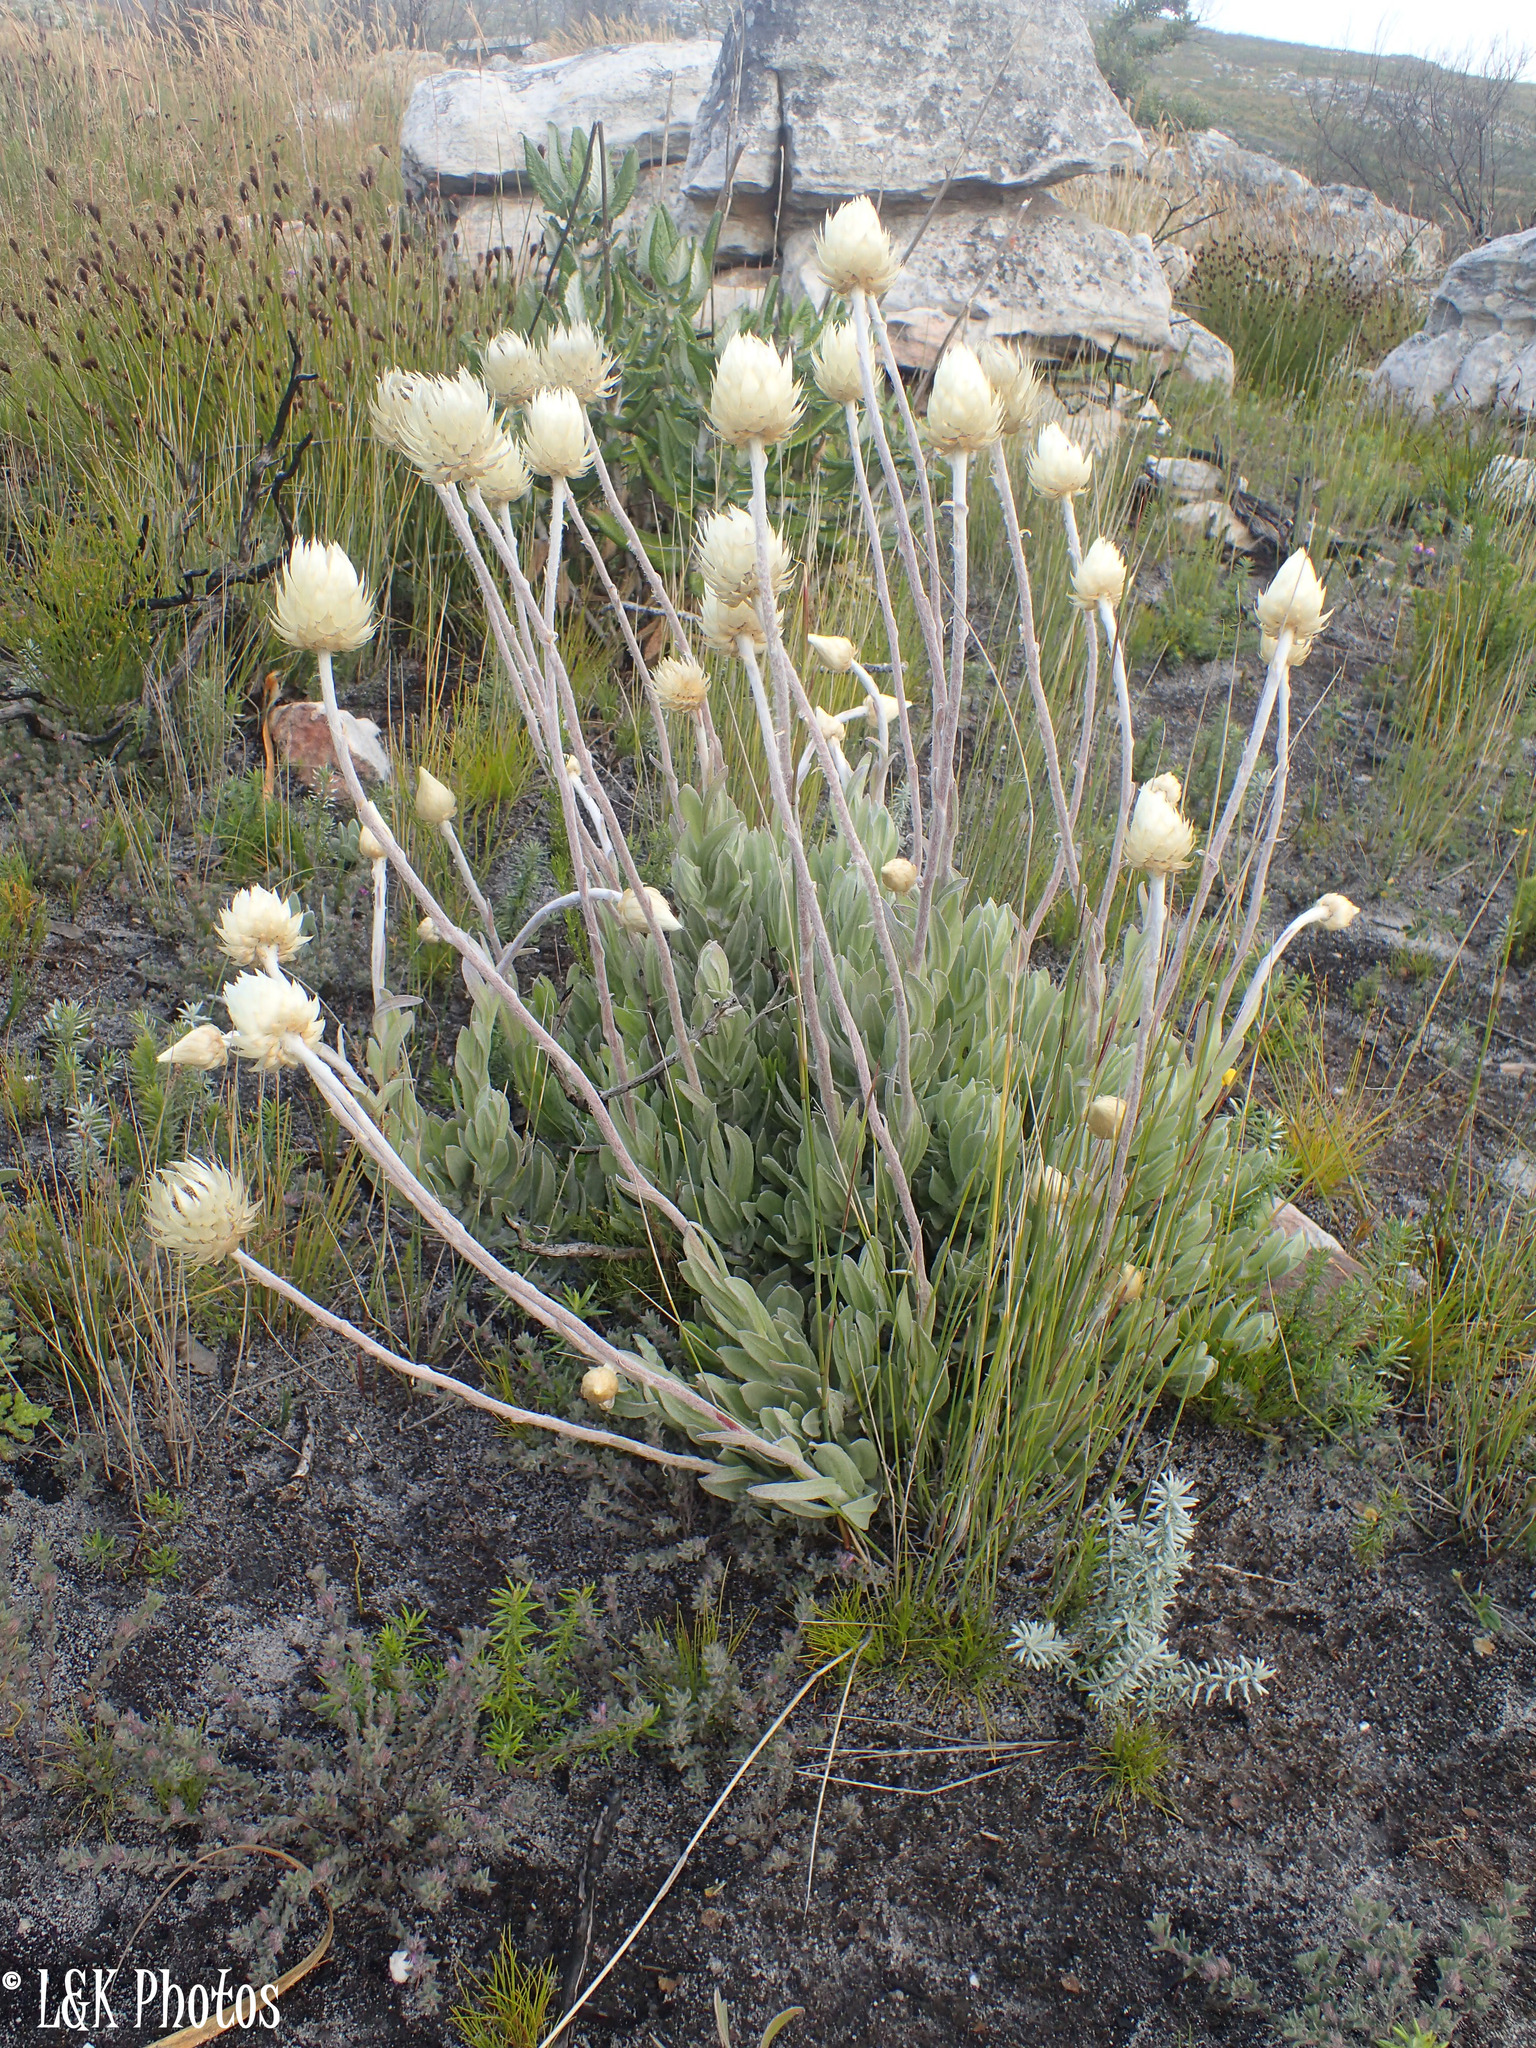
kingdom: Plantae
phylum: Tracheophyta
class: Magnoliopsida
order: Asterales
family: Asteraceae
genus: Syncarpha
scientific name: Syncarpha speciosissima
